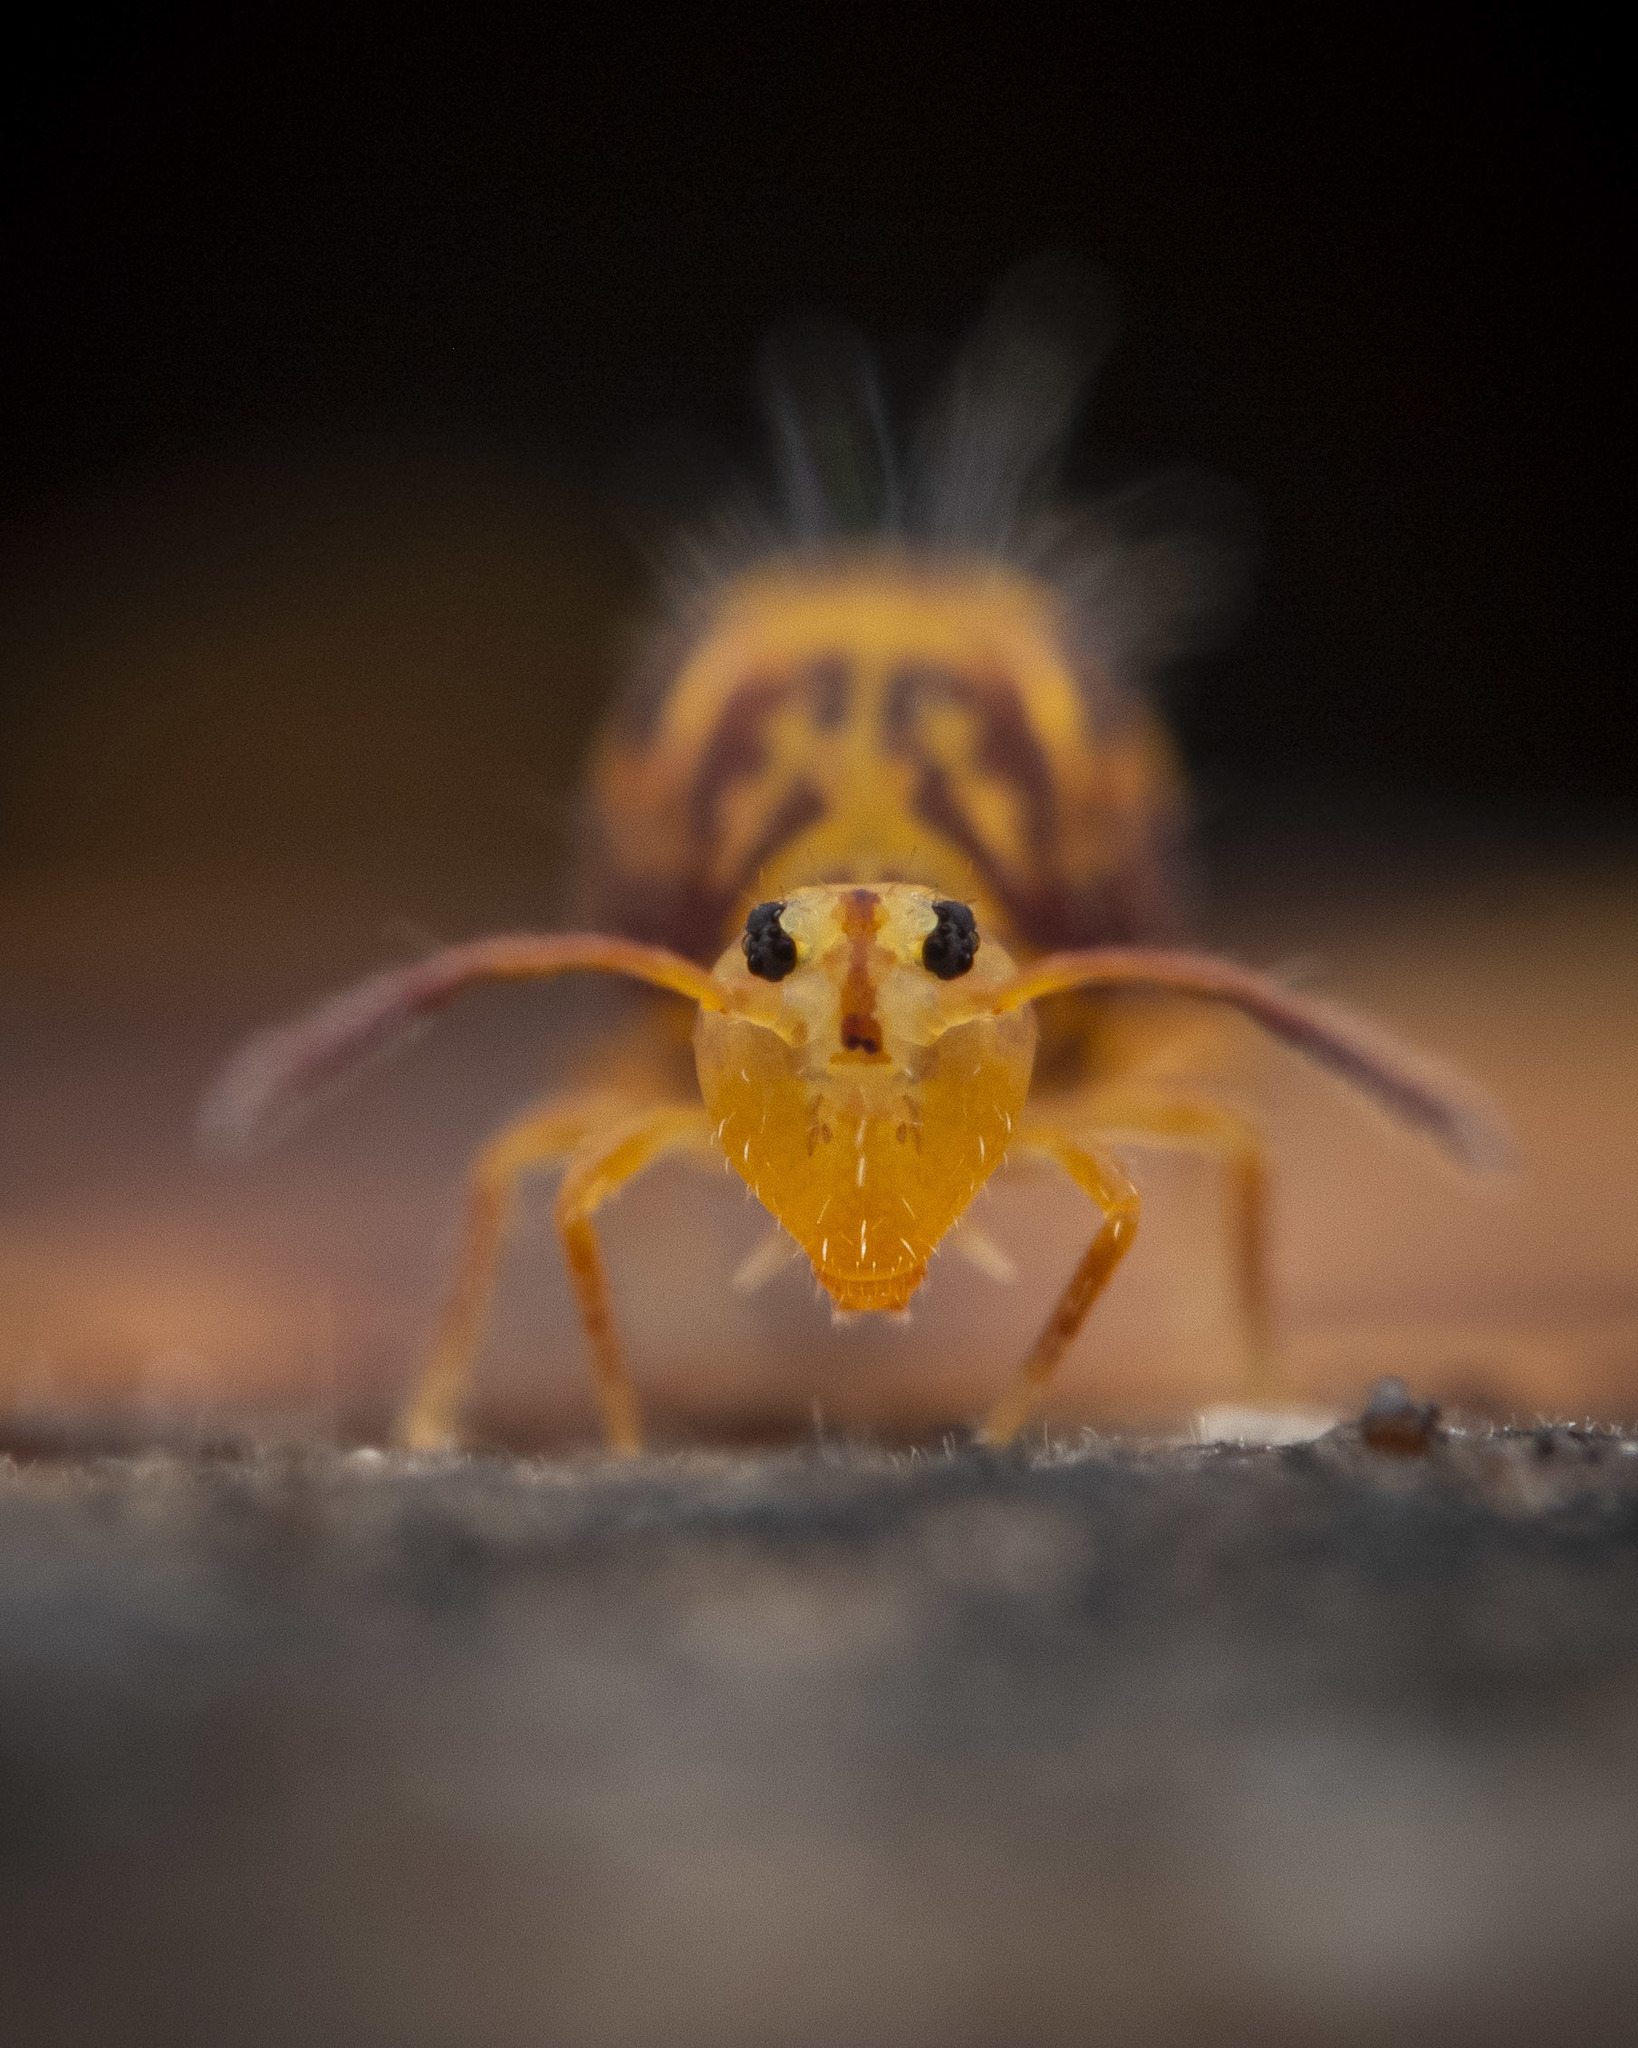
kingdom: Animalia
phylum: Arthropoda
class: Collembola
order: Symphypleona
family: Dicyrtomidae
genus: Dicyrtomina
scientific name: Dicyrtomina ornata
